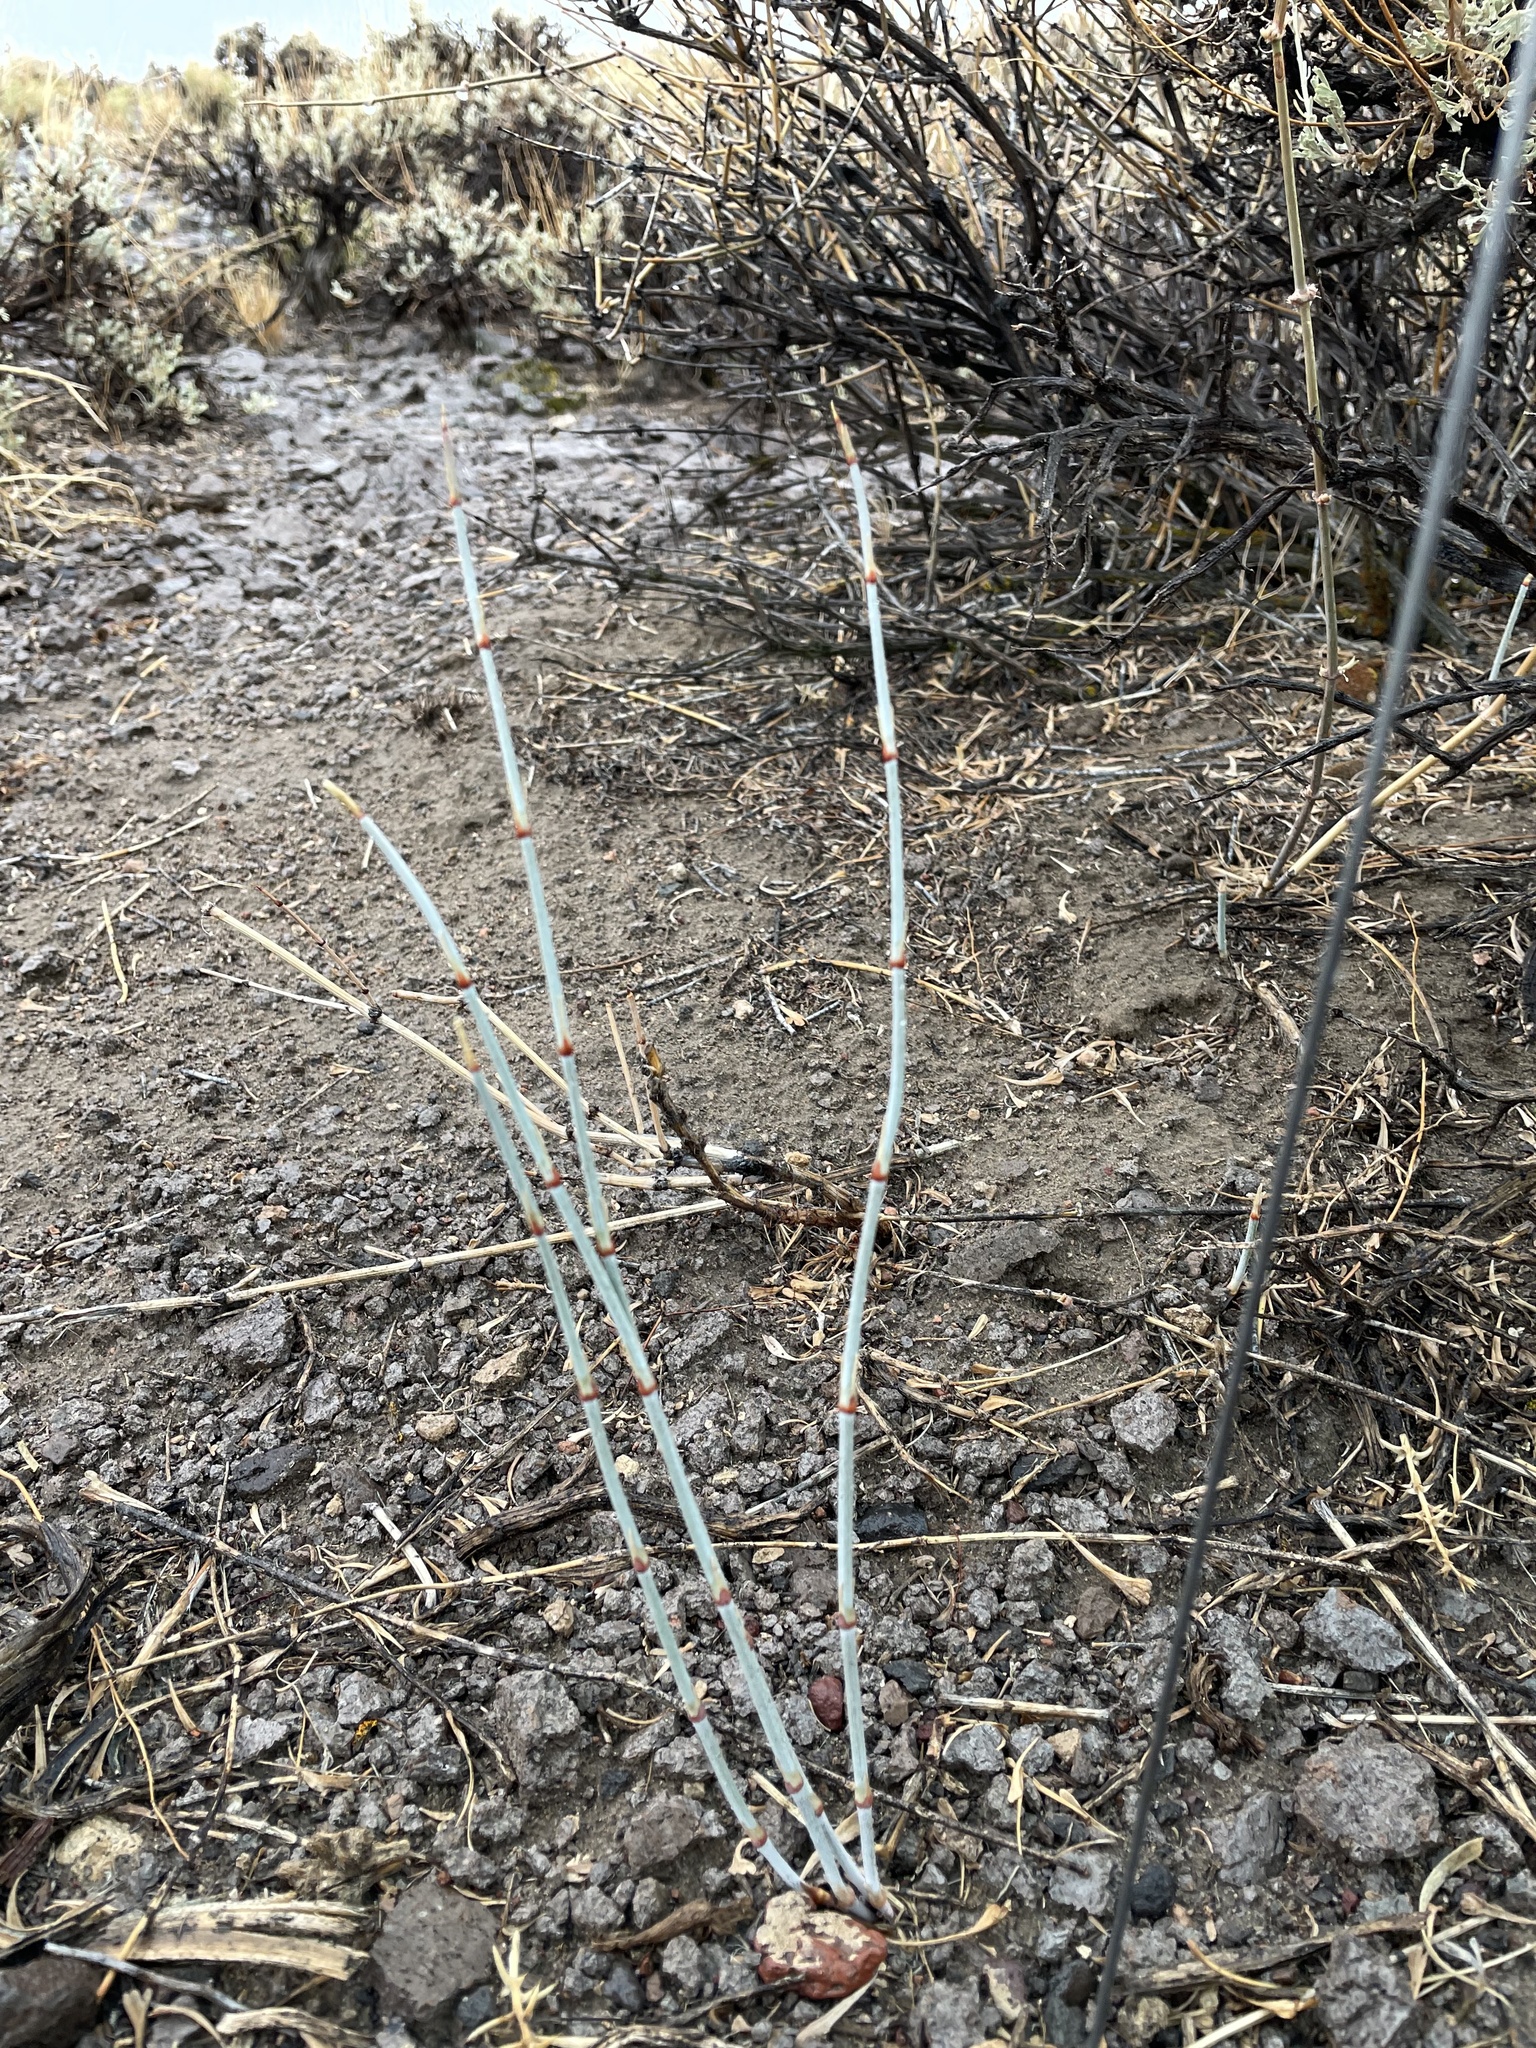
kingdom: Plantae
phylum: Tracheophyta
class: Gnetopsida
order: Ephedrales
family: Ephedraceae
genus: Ephedra
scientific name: Ephedra nevadensis
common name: Gray ephedra
